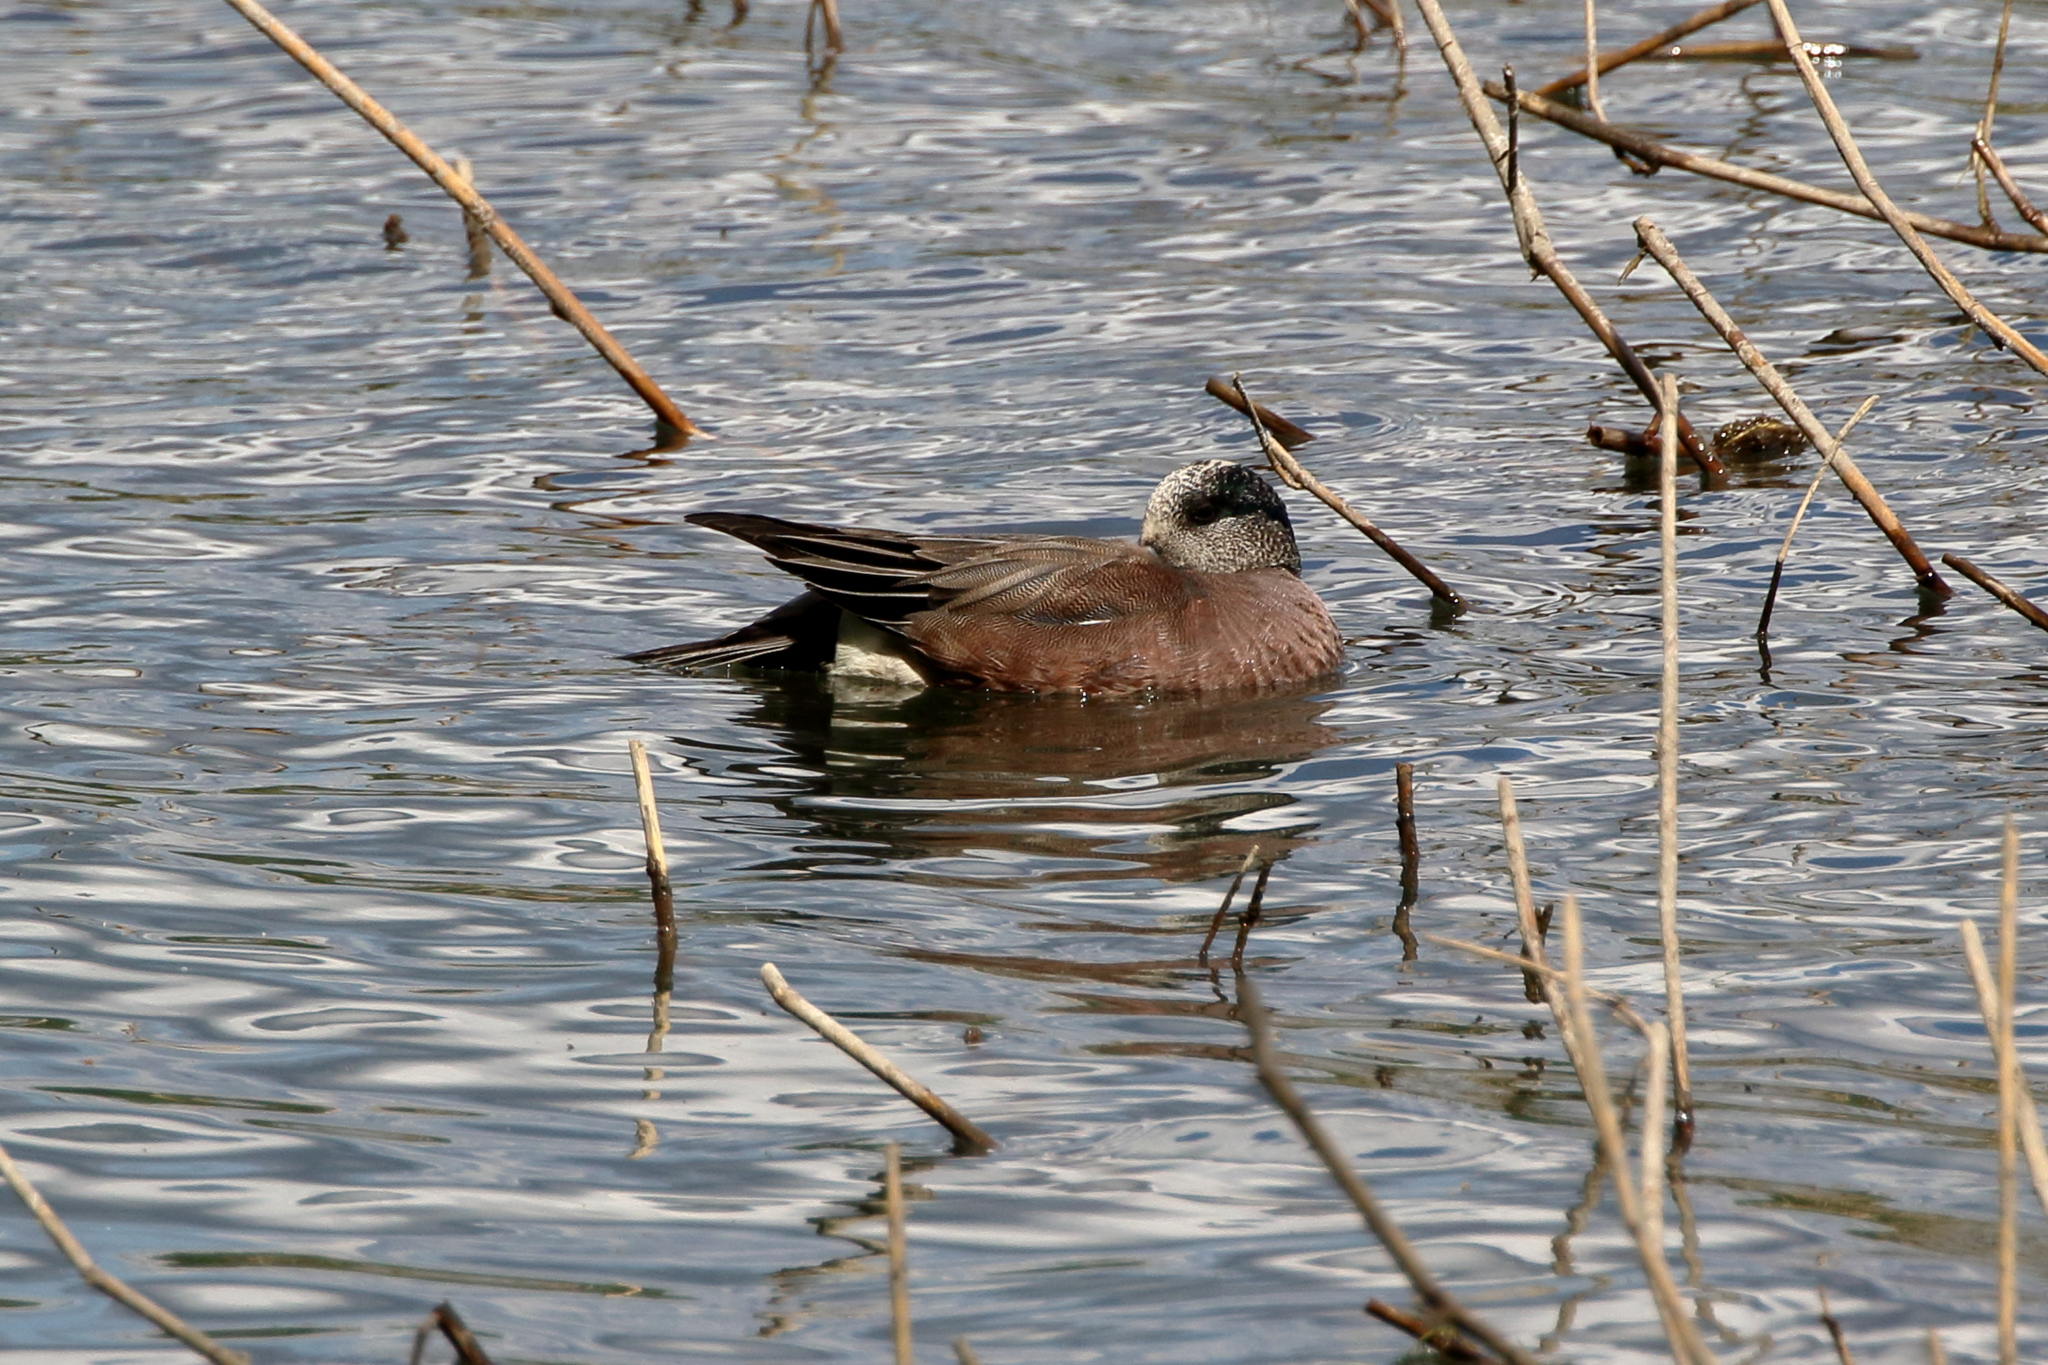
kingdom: Animalia
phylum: Chordata
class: Aves
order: Anseriformes
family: Anatidae
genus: Mareca
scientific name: Mareca americana
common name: American wigeon
